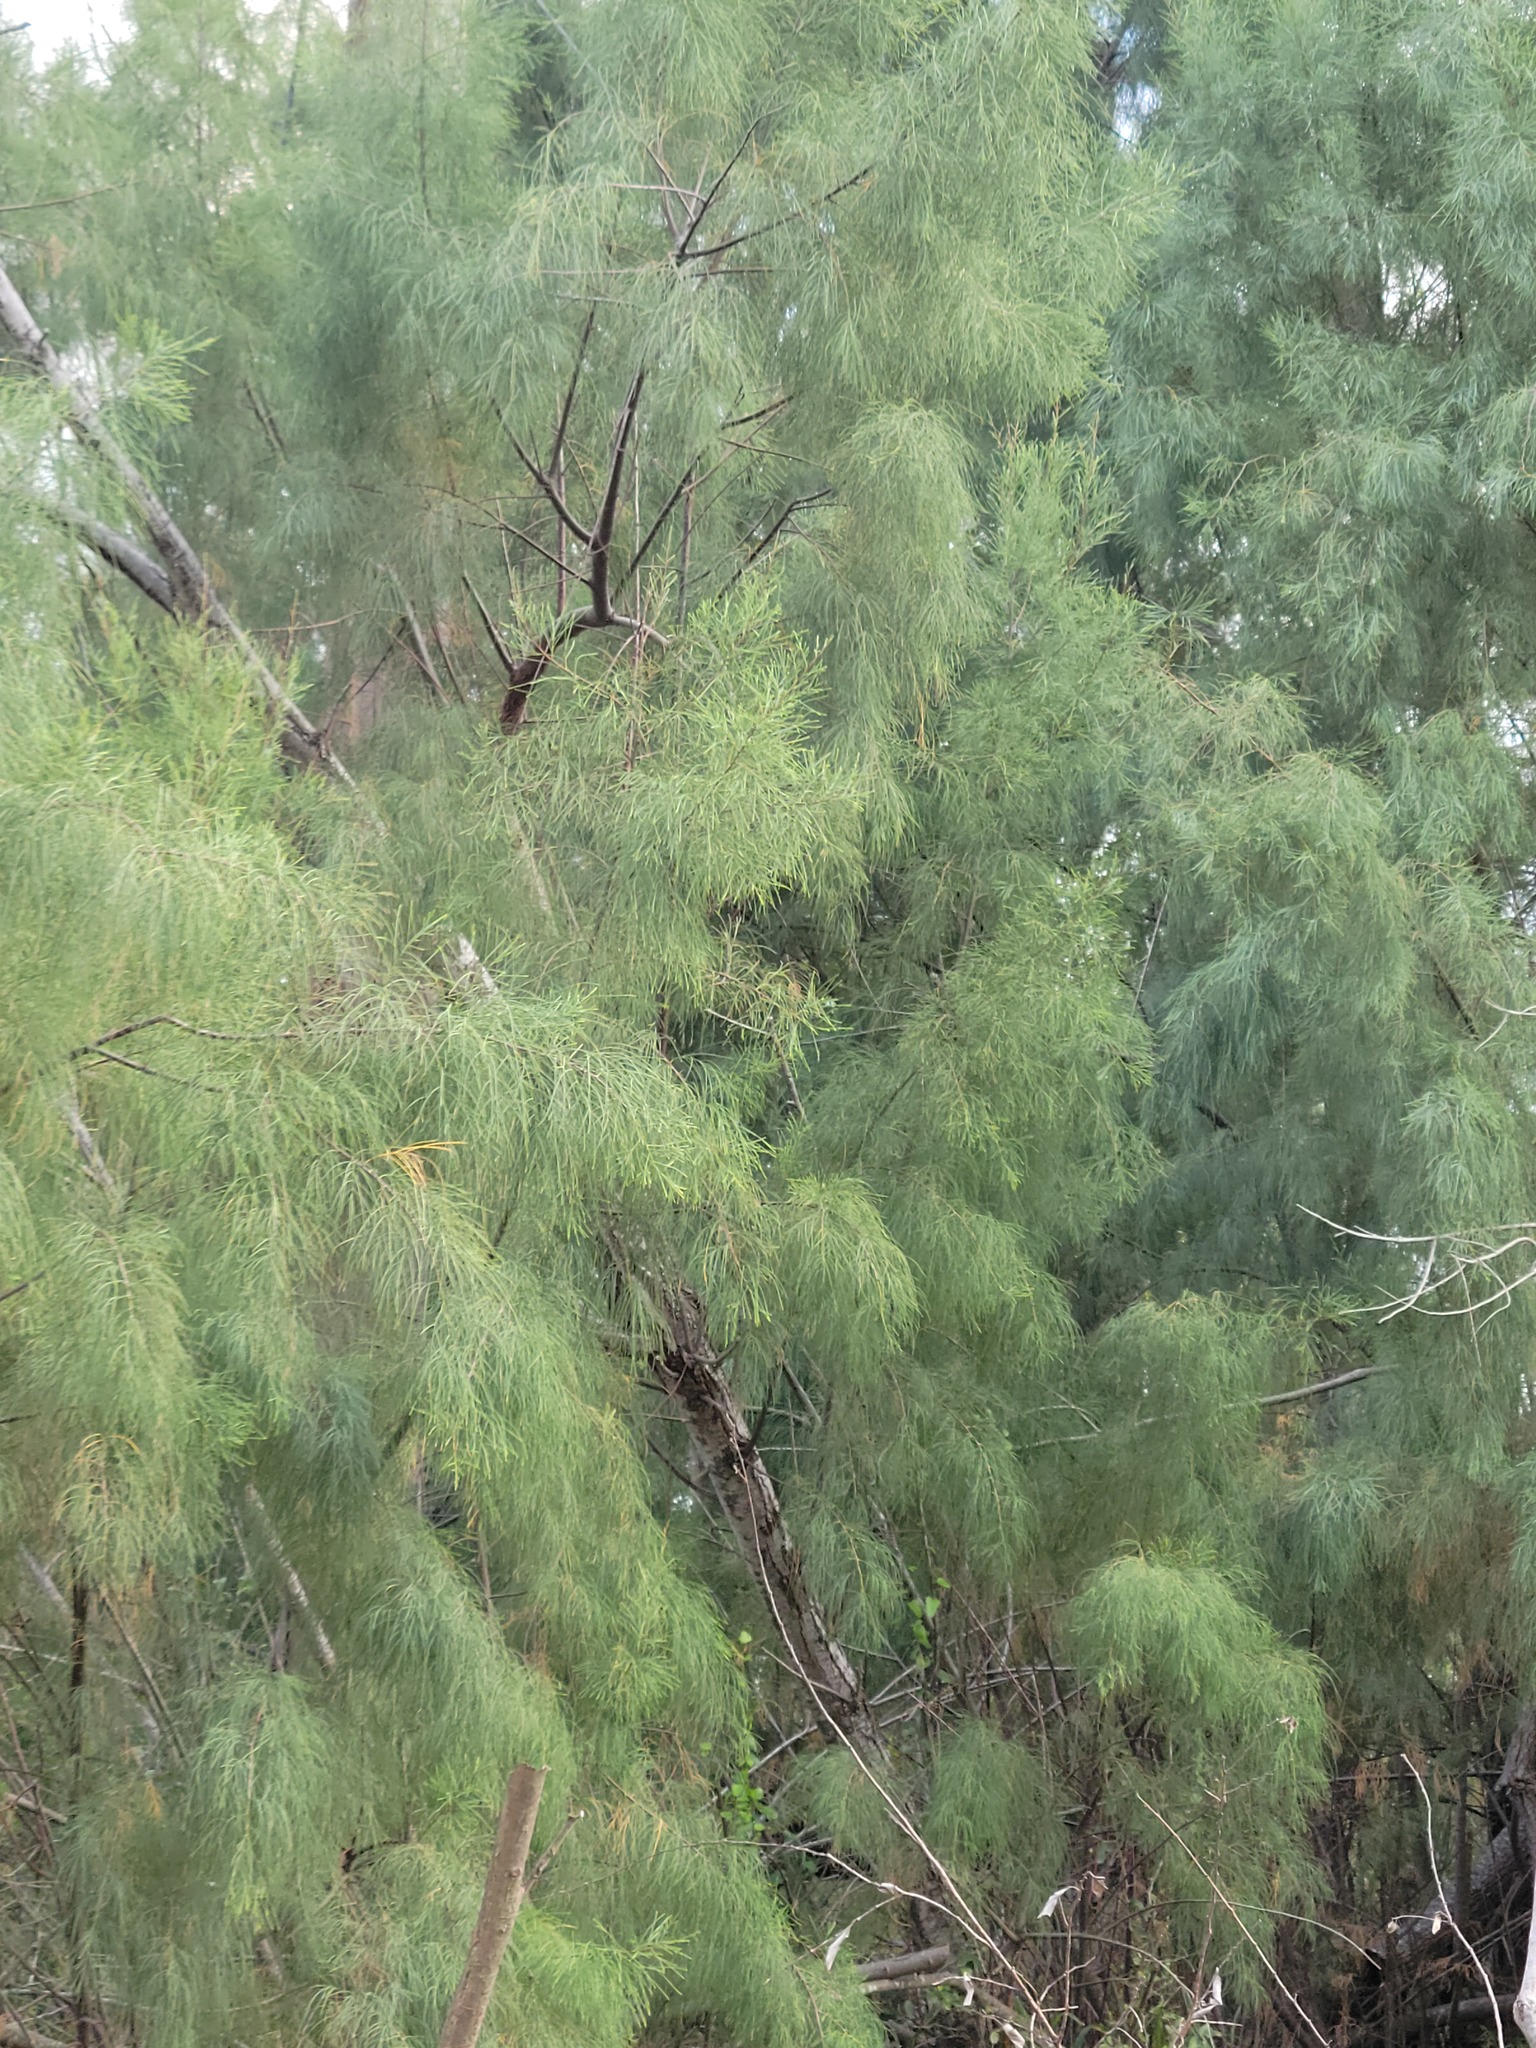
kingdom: Plantae
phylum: Tracheophyta
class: Magnoliopsida
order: Caryophyllales
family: Tamaricaceae
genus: Tamarix
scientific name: Tamarix aphylla
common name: Athel tamarisk
